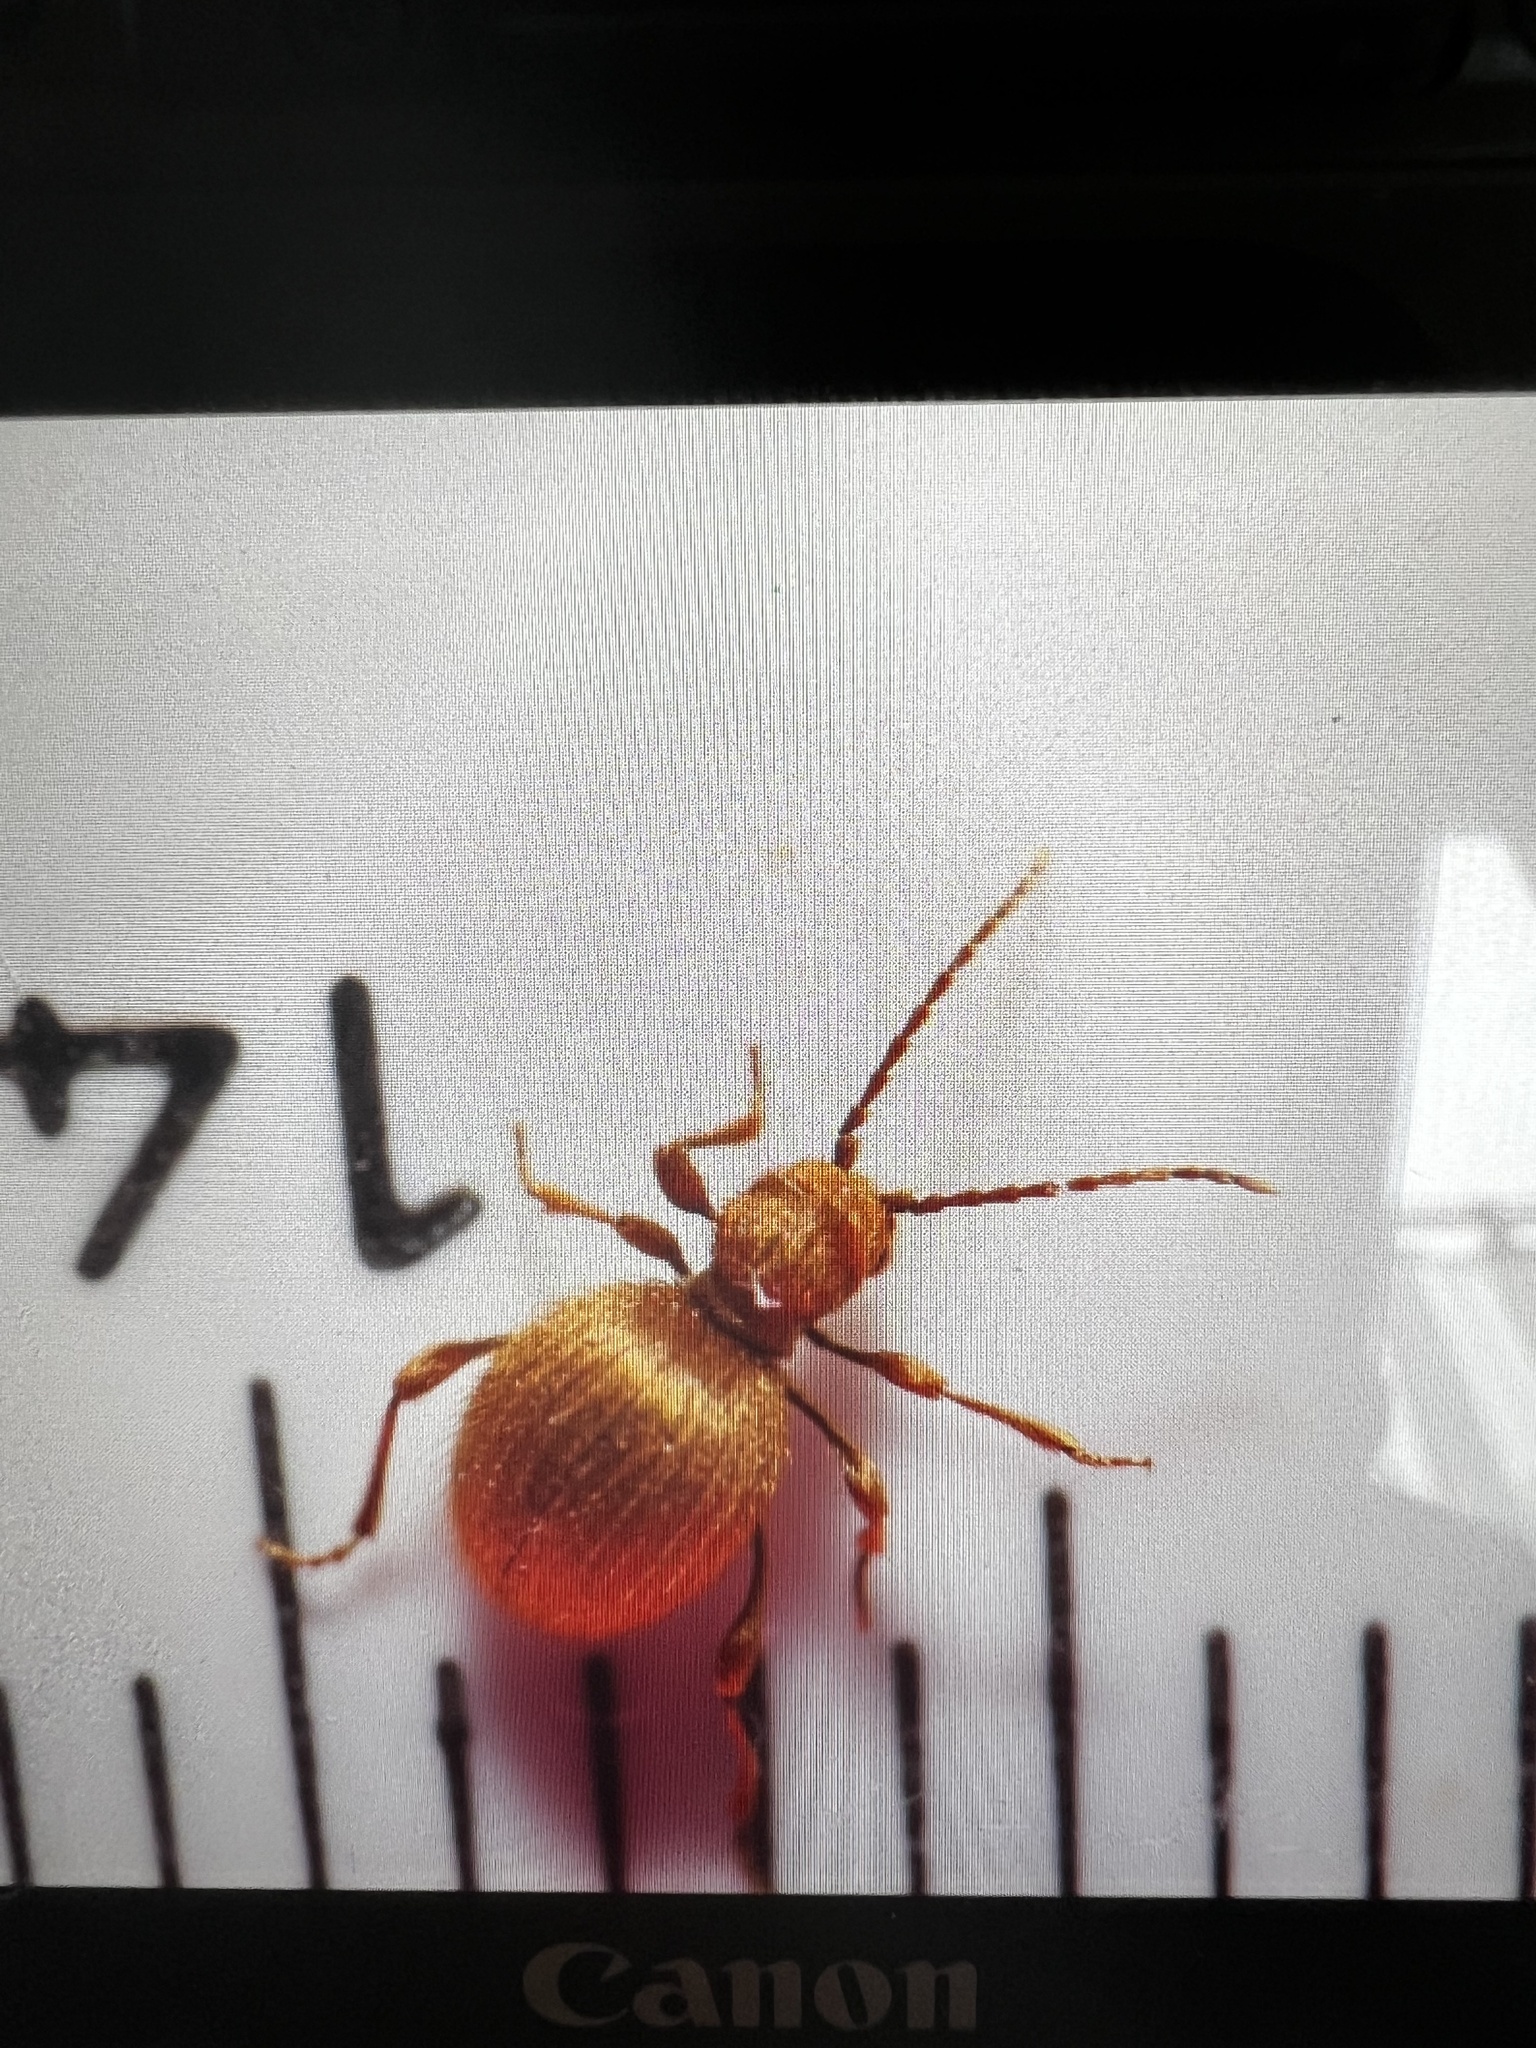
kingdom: Animalia
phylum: Arthropoda
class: Insecta
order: Coleoptera
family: Ptinidae
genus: Niptus
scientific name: Niptus hololeucus
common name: Golden spider beetle
